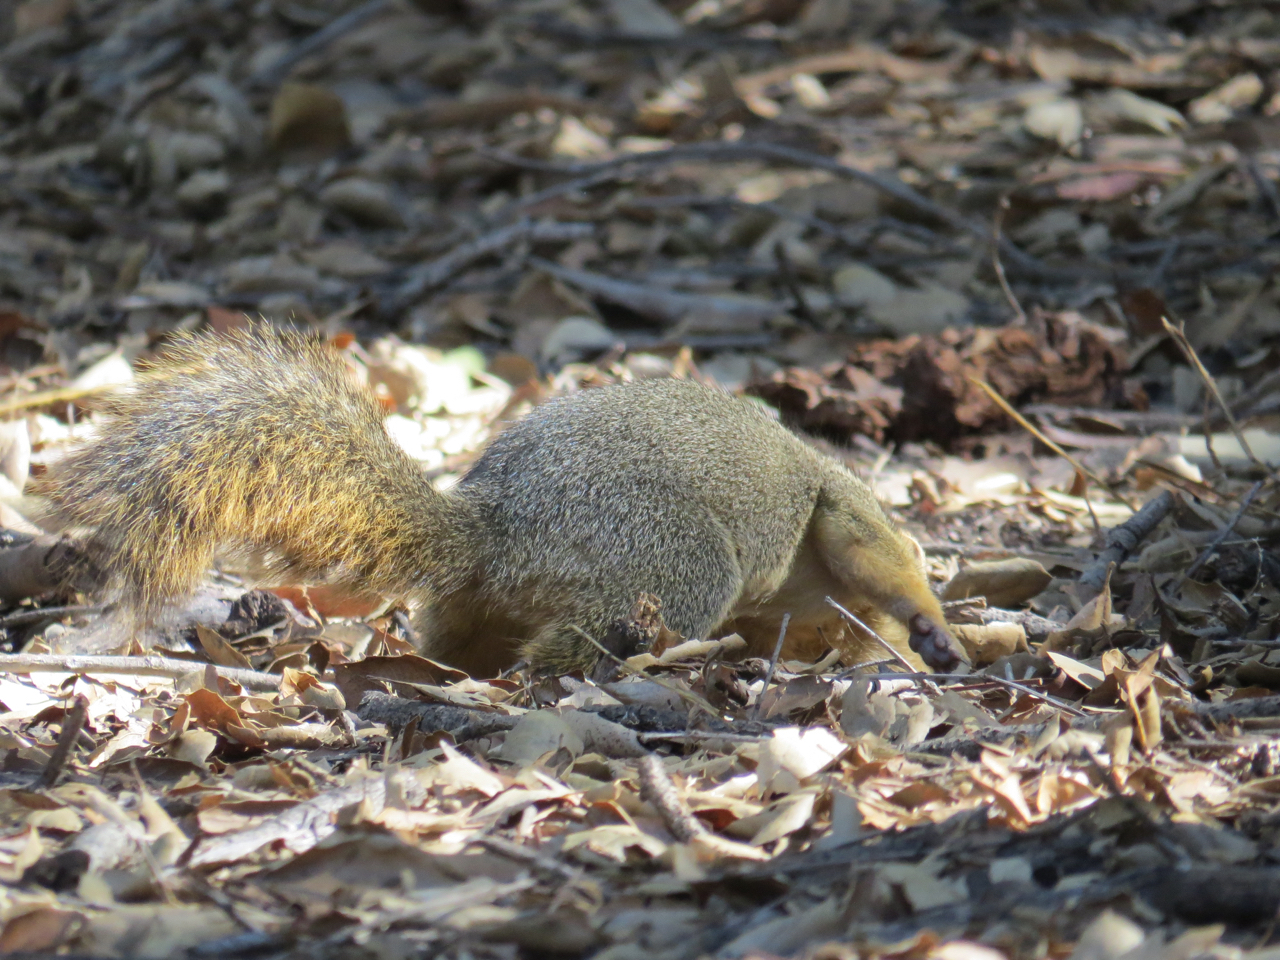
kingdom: Animalia
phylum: Chordata
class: Mammalia
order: Rodentia
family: Sciuridae
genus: Sciurus
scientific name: Sciurus niger
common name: Fox squirrel
